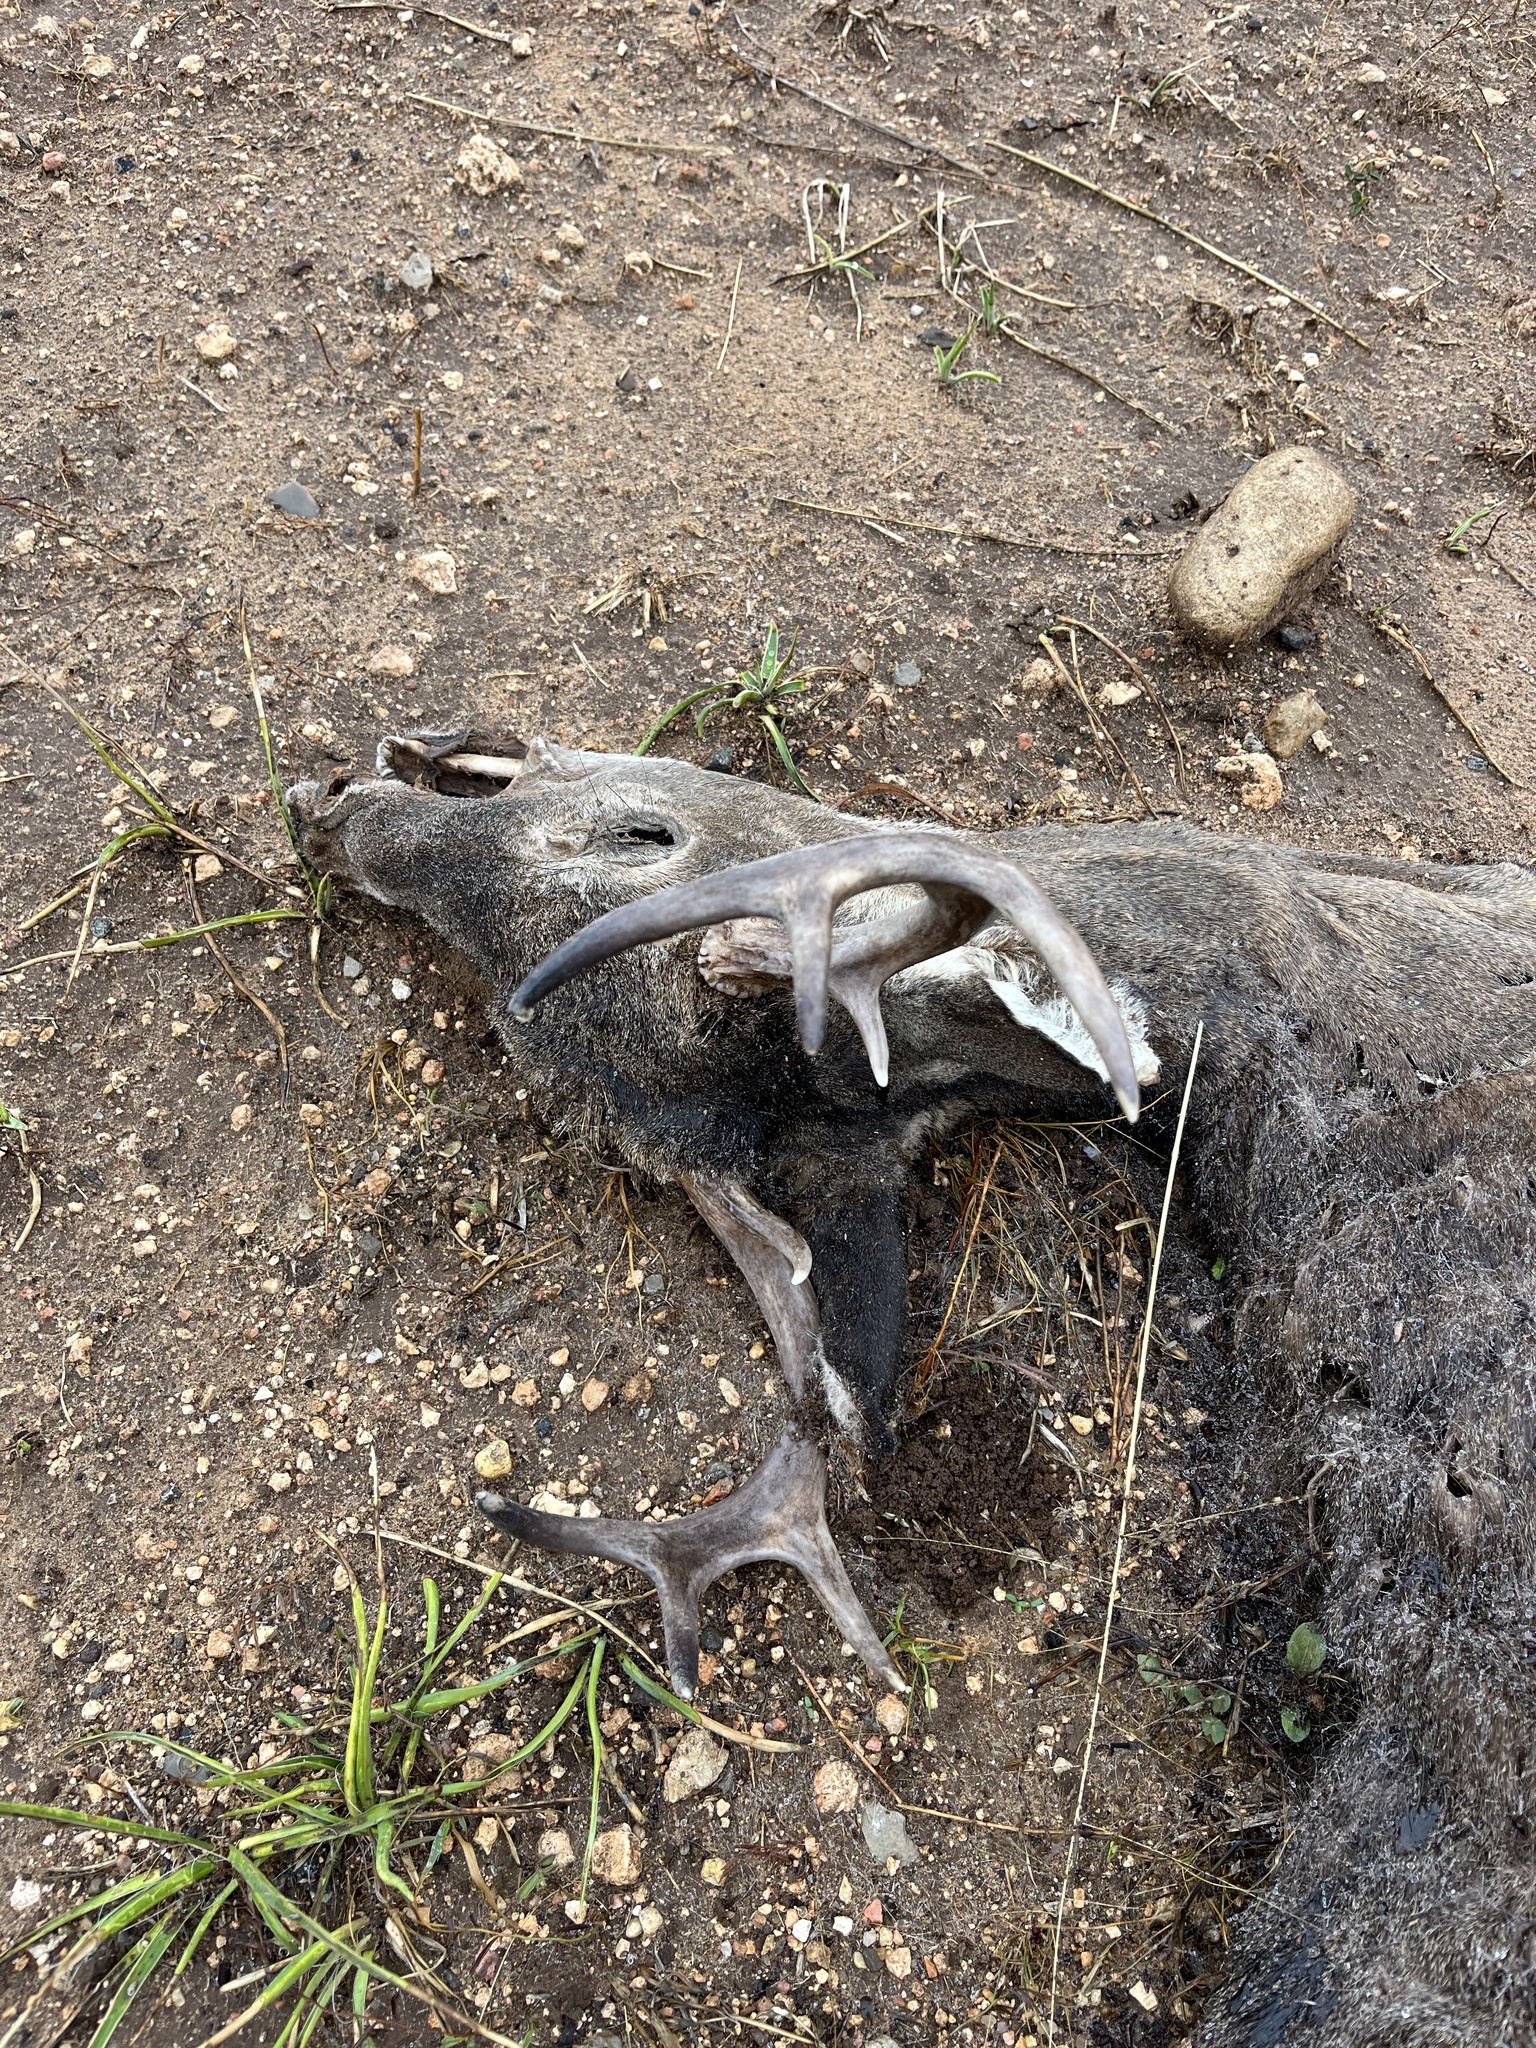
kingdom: Animalia
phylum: Chordata
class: Mammalia
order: Artiodactyla
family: Cervidae
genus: Odocoileus
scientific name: Odocoileus virginianus
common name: White-tailed deer
